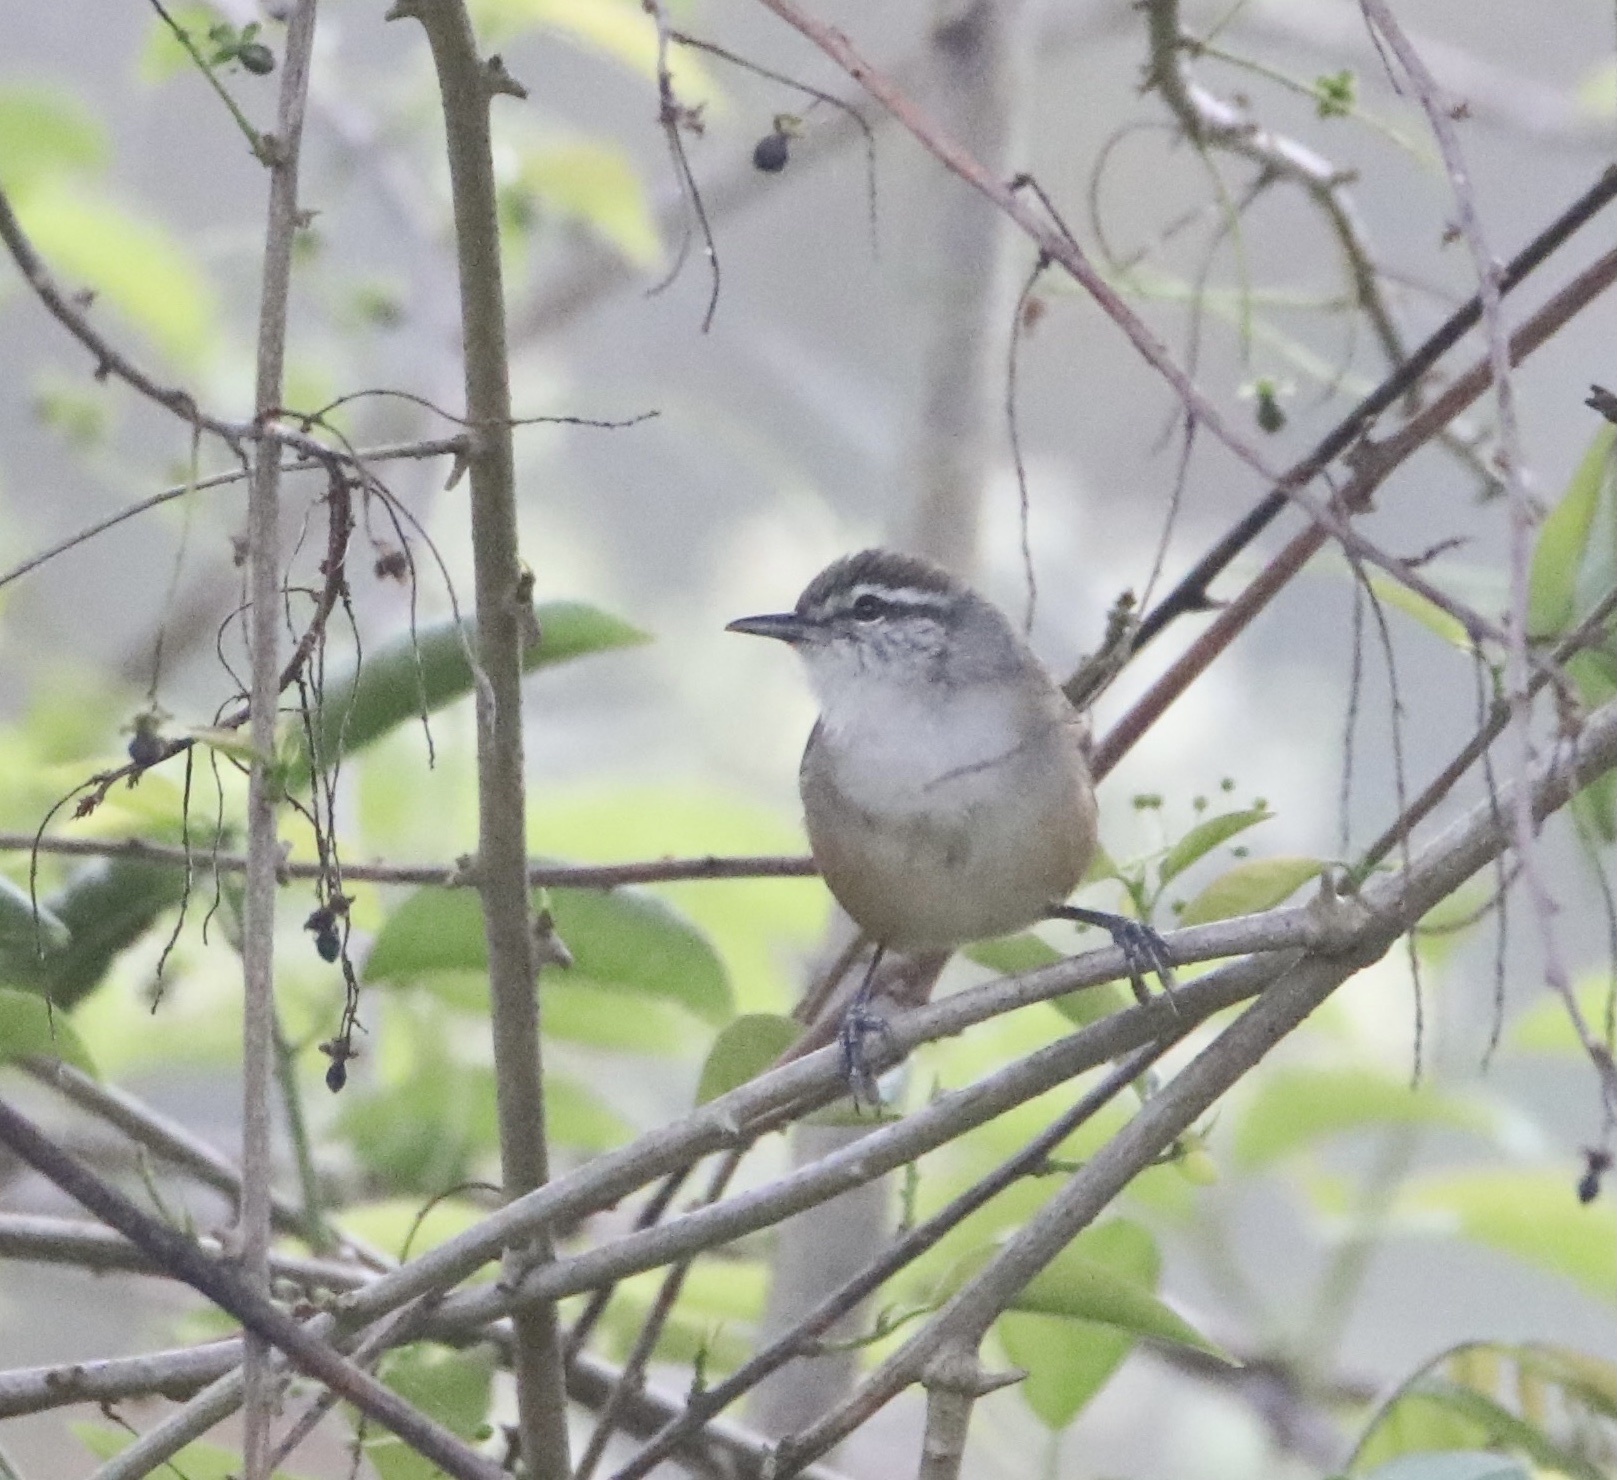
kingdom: Animalia
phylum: Chordata
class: Aves
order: Passeriformes
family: Troglodytidae
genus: Cantorchilus
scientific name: Cantorchilus modestus
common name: Cabanis's wren
